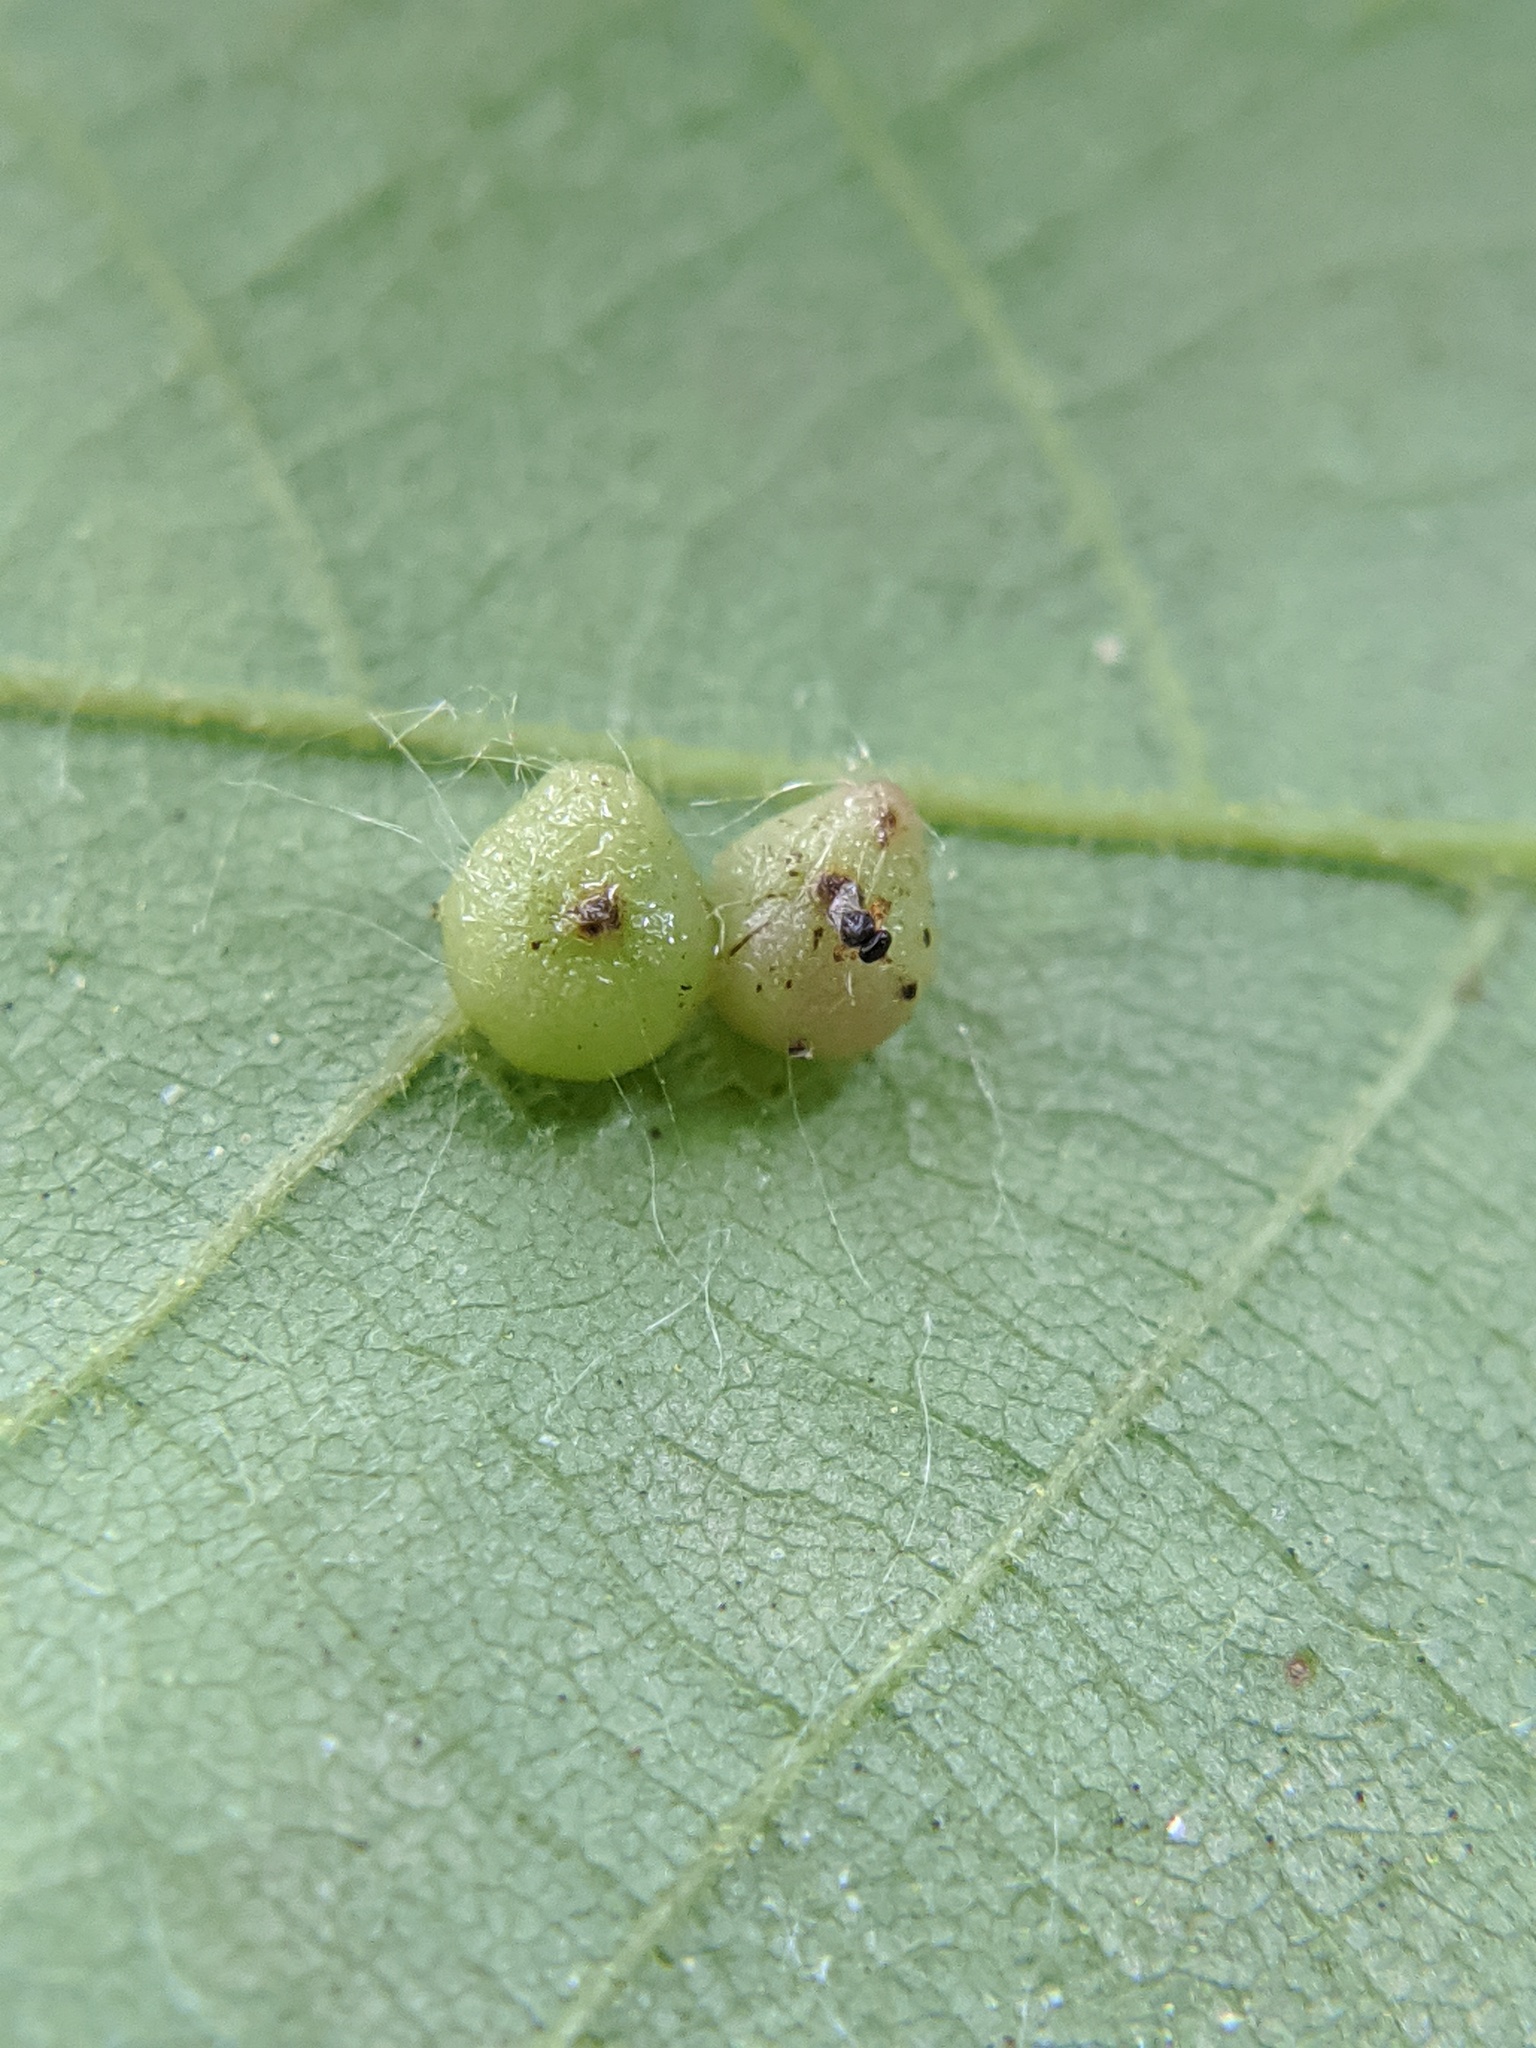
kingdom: Animalia
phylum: Arthropoda
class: Insecta
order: Diptera
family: Cecidomyiidae
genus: Caryomyia
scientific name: Caryomyia caryae
